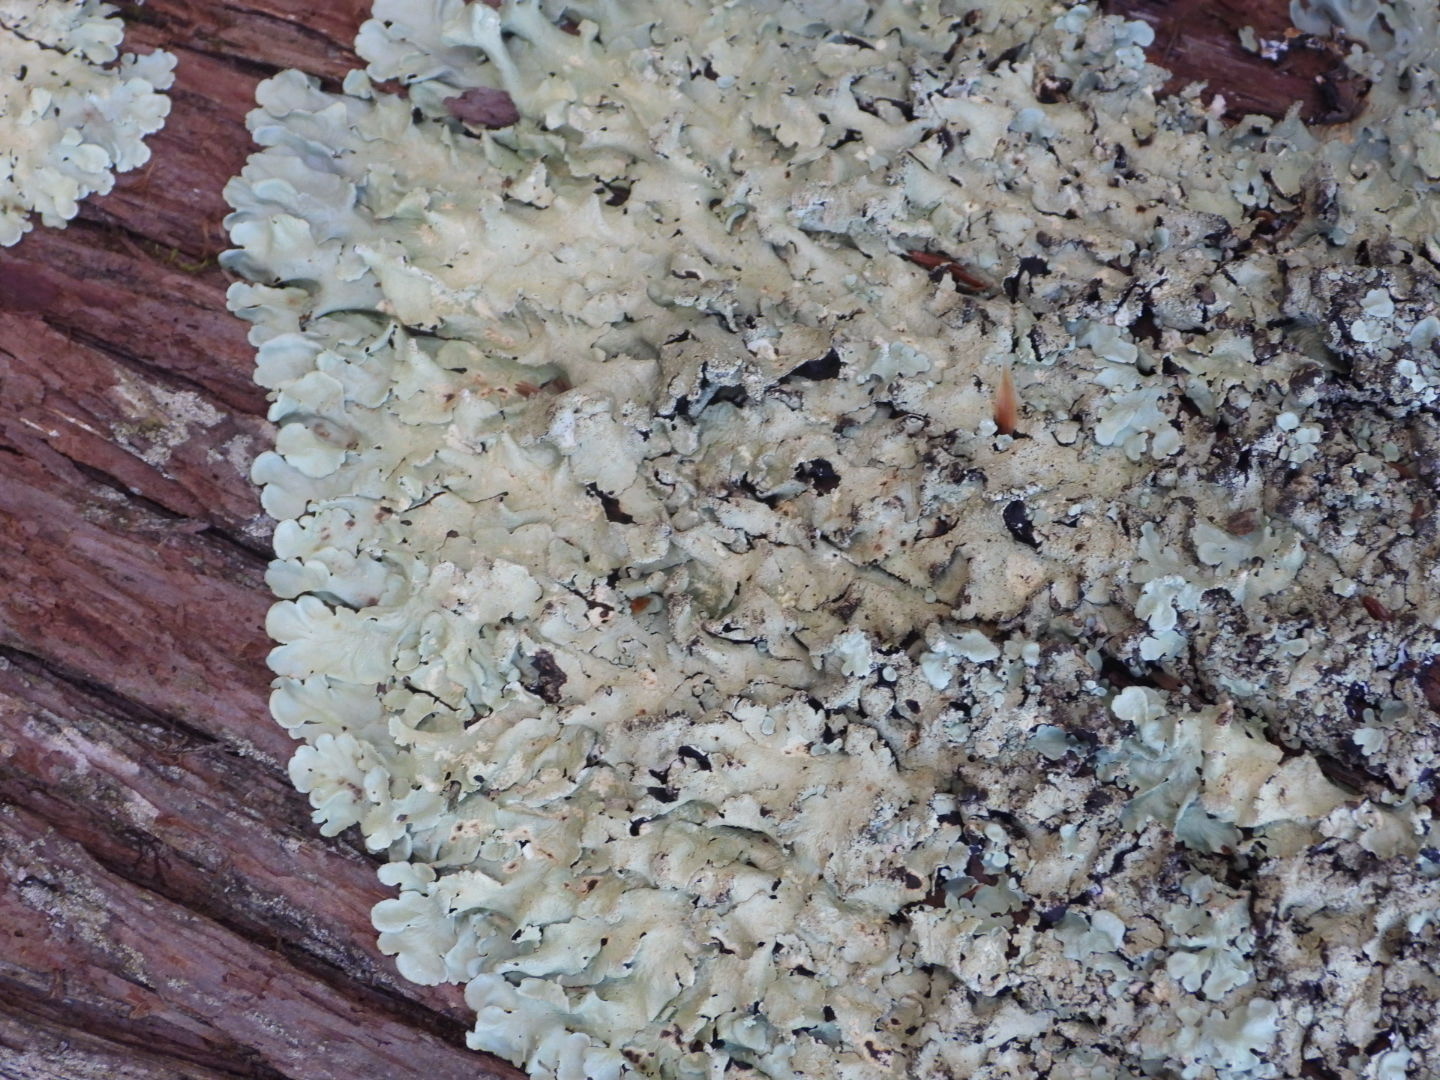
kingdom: Fungi
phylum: Ascomycota
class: Lecanoromycetes
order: Lecanorales
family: Parmeliaceae
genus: Flavoparmelia
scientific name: Flavoparmelia caperata
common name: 40-mile per hour lichen
